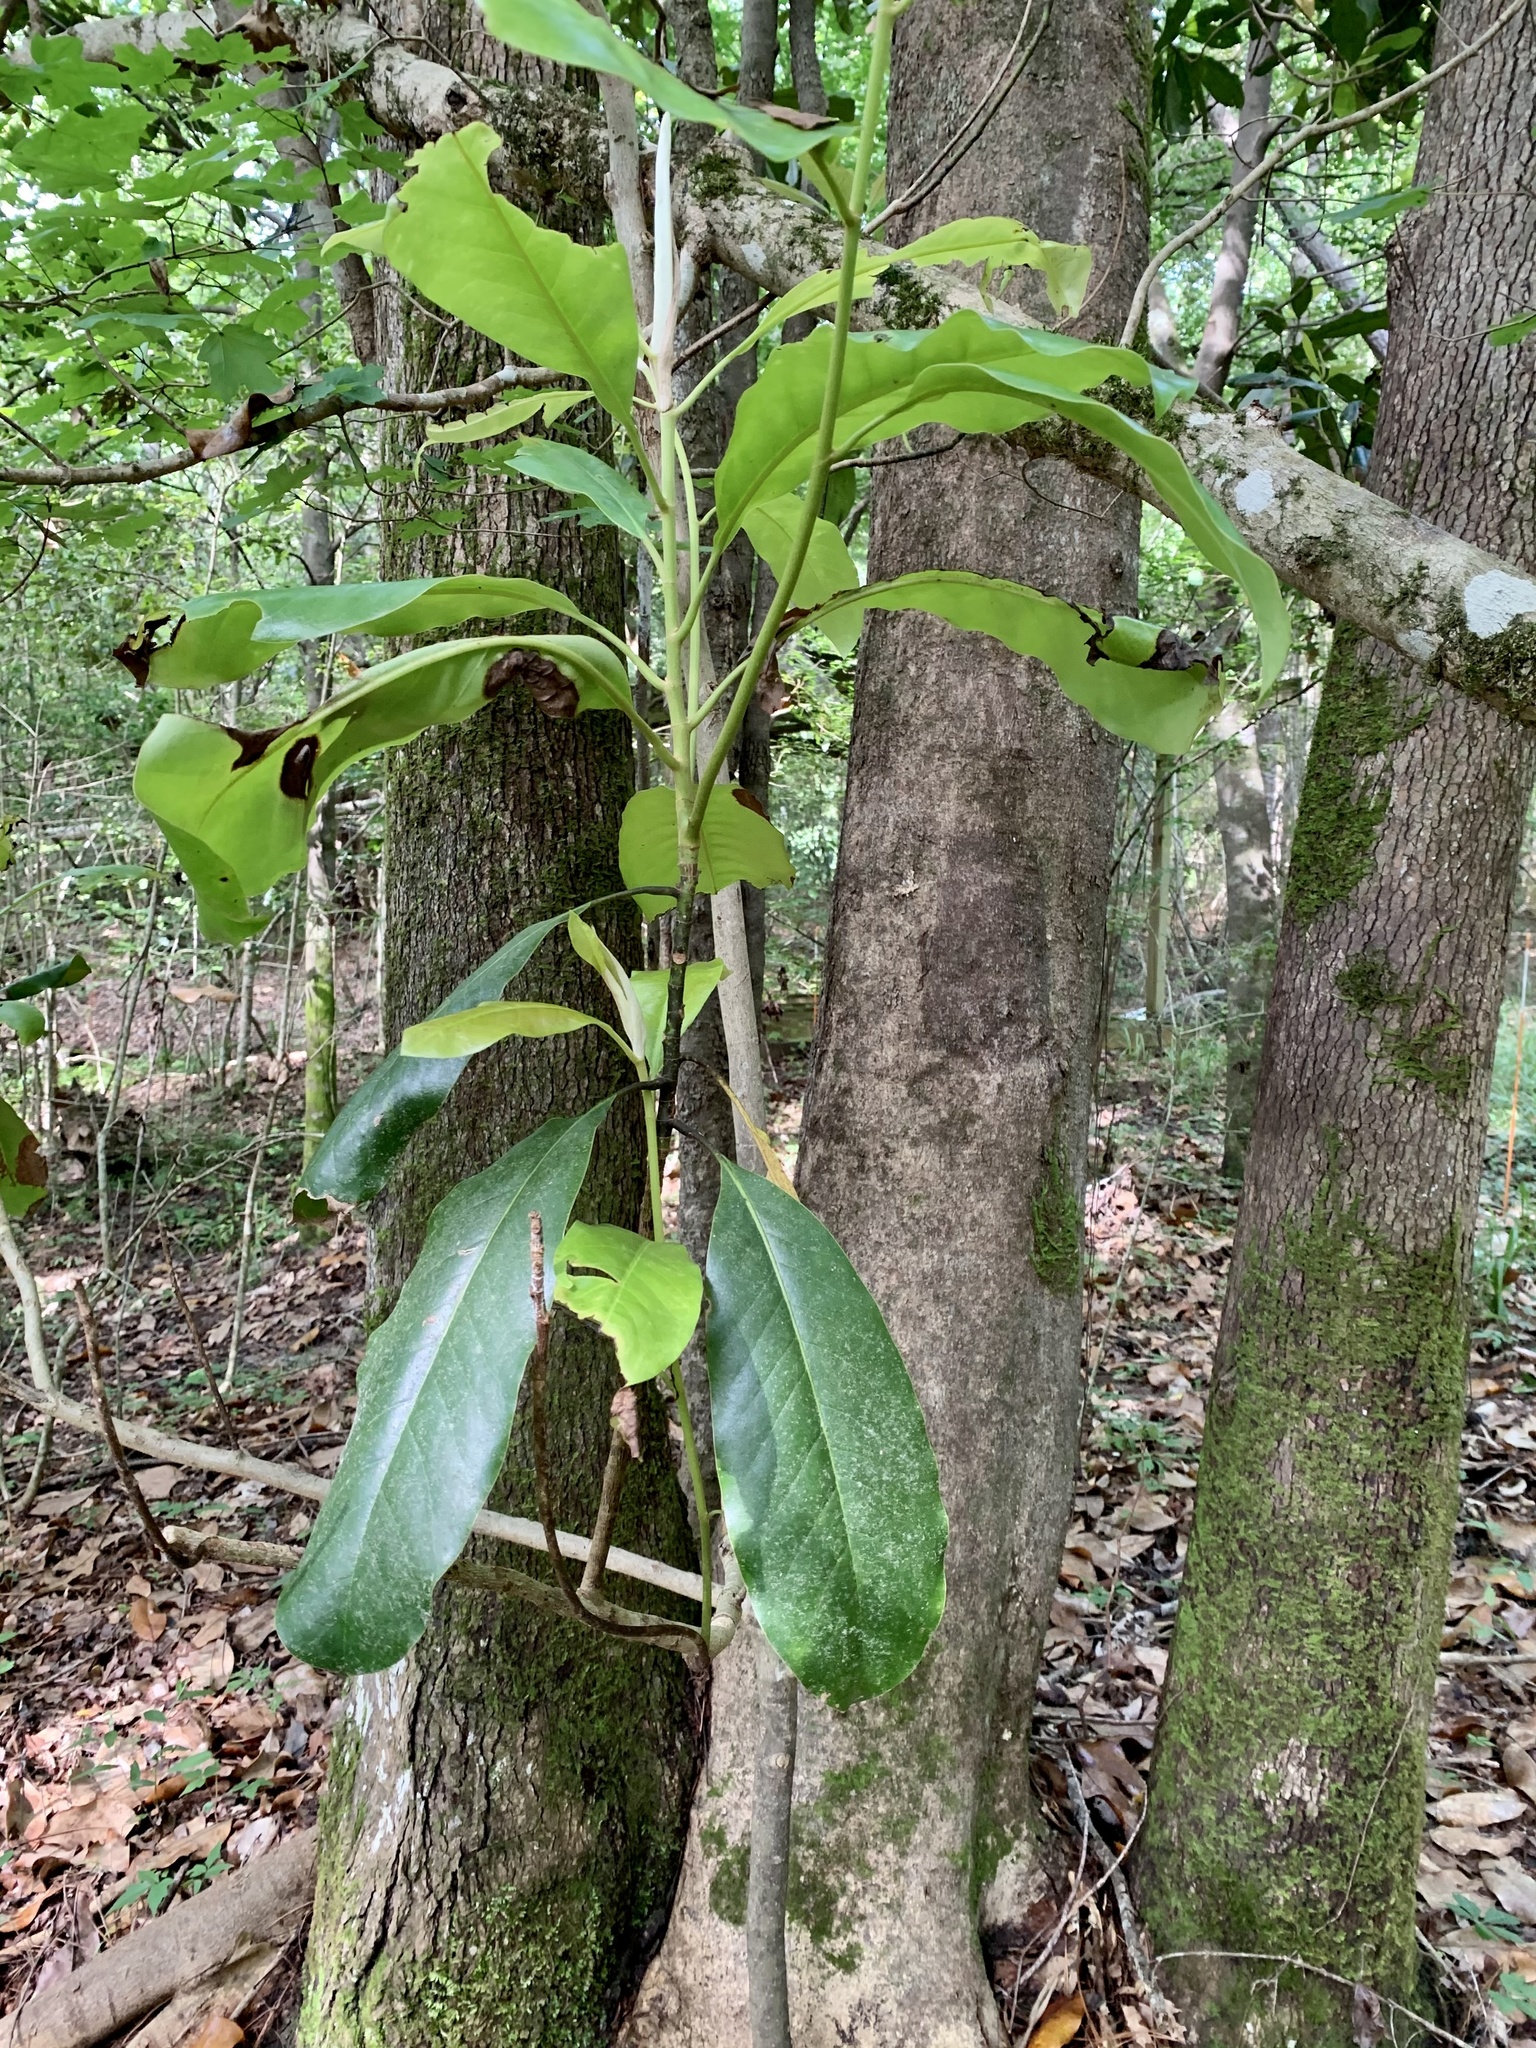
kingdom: Plantae
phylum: Tracheophyta
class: Magnoliopsida
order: Magnoliales
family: Magnoliaceae
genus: Magnolia
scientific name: Magnolia grandiflora
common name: Southern magnolia
